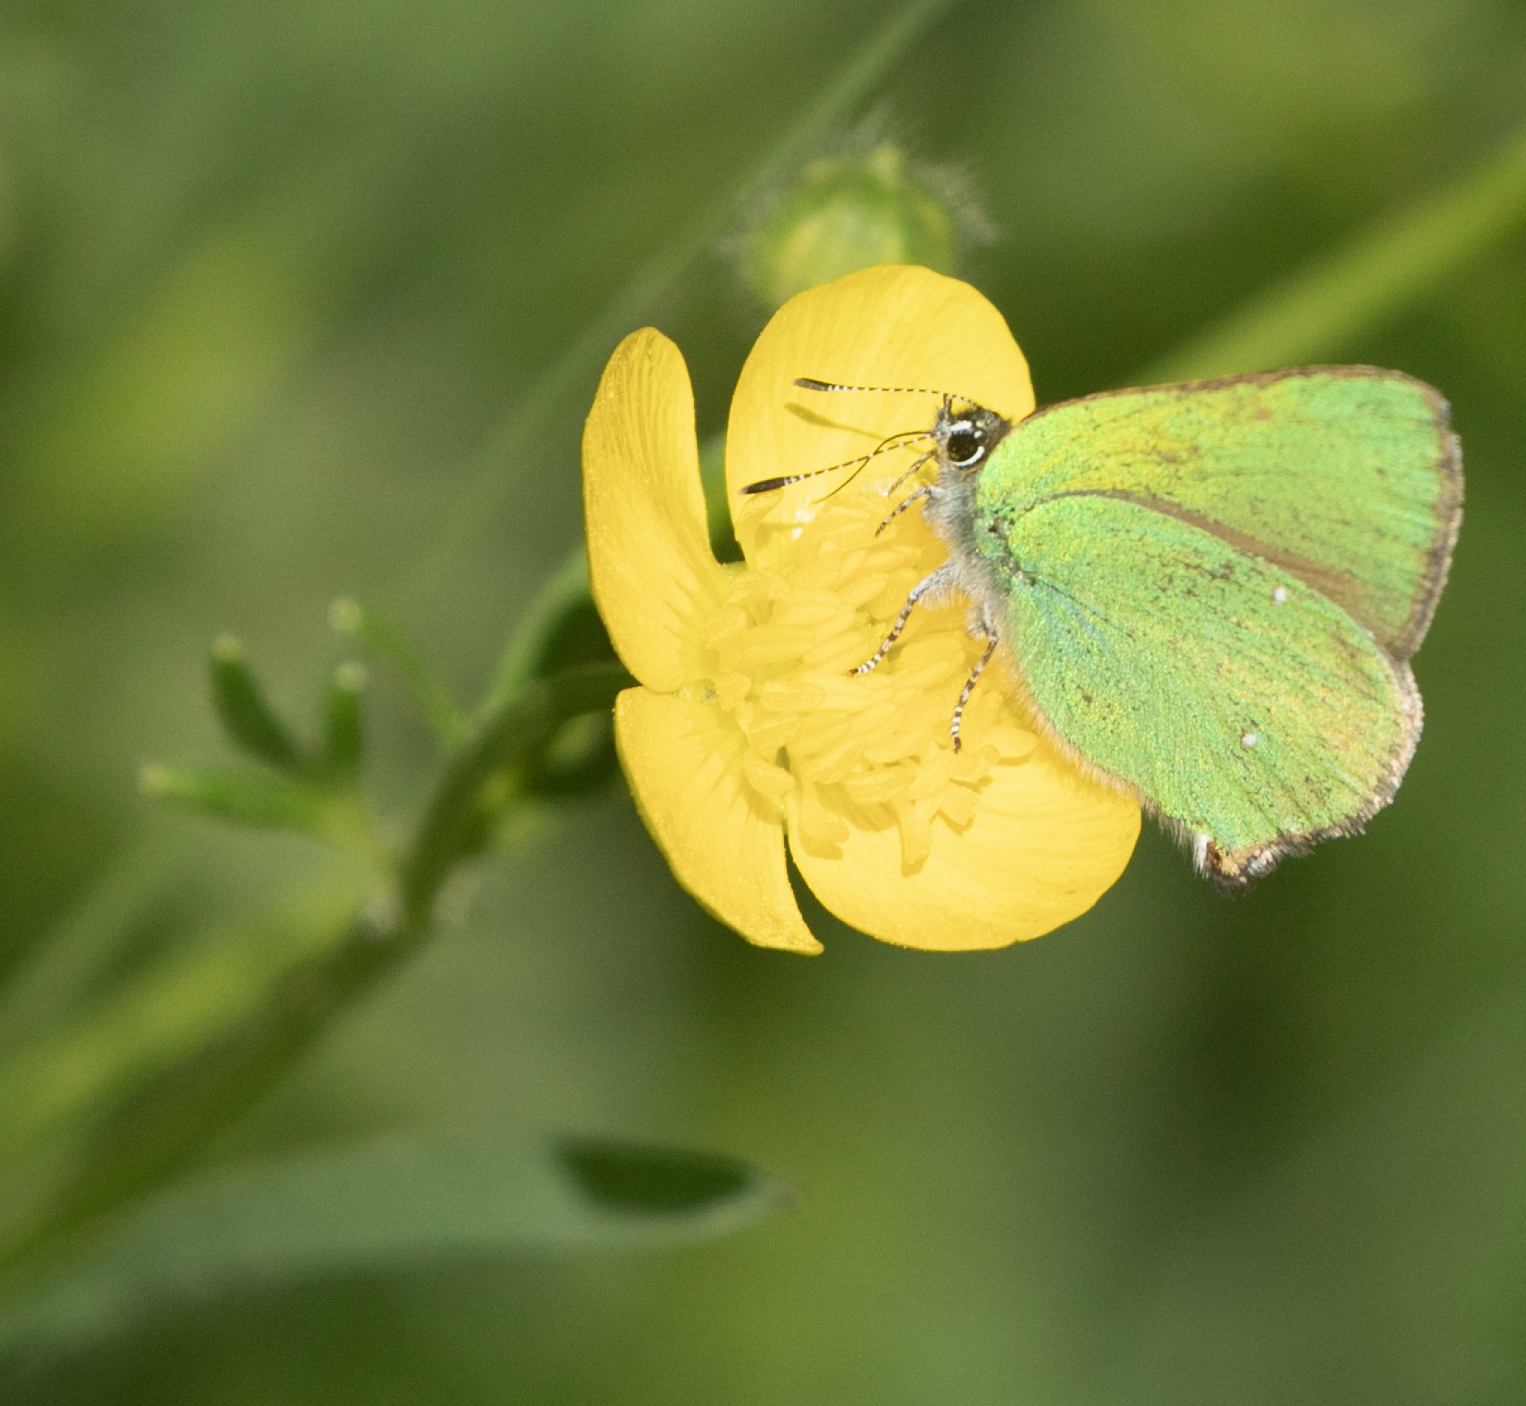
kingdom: Animalia
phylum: Arthropoda
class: Insecta
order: Lepidoptera
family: Lycaenidae
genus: Callophrys
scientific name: Callophrys rubi
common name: Green hairstreak
